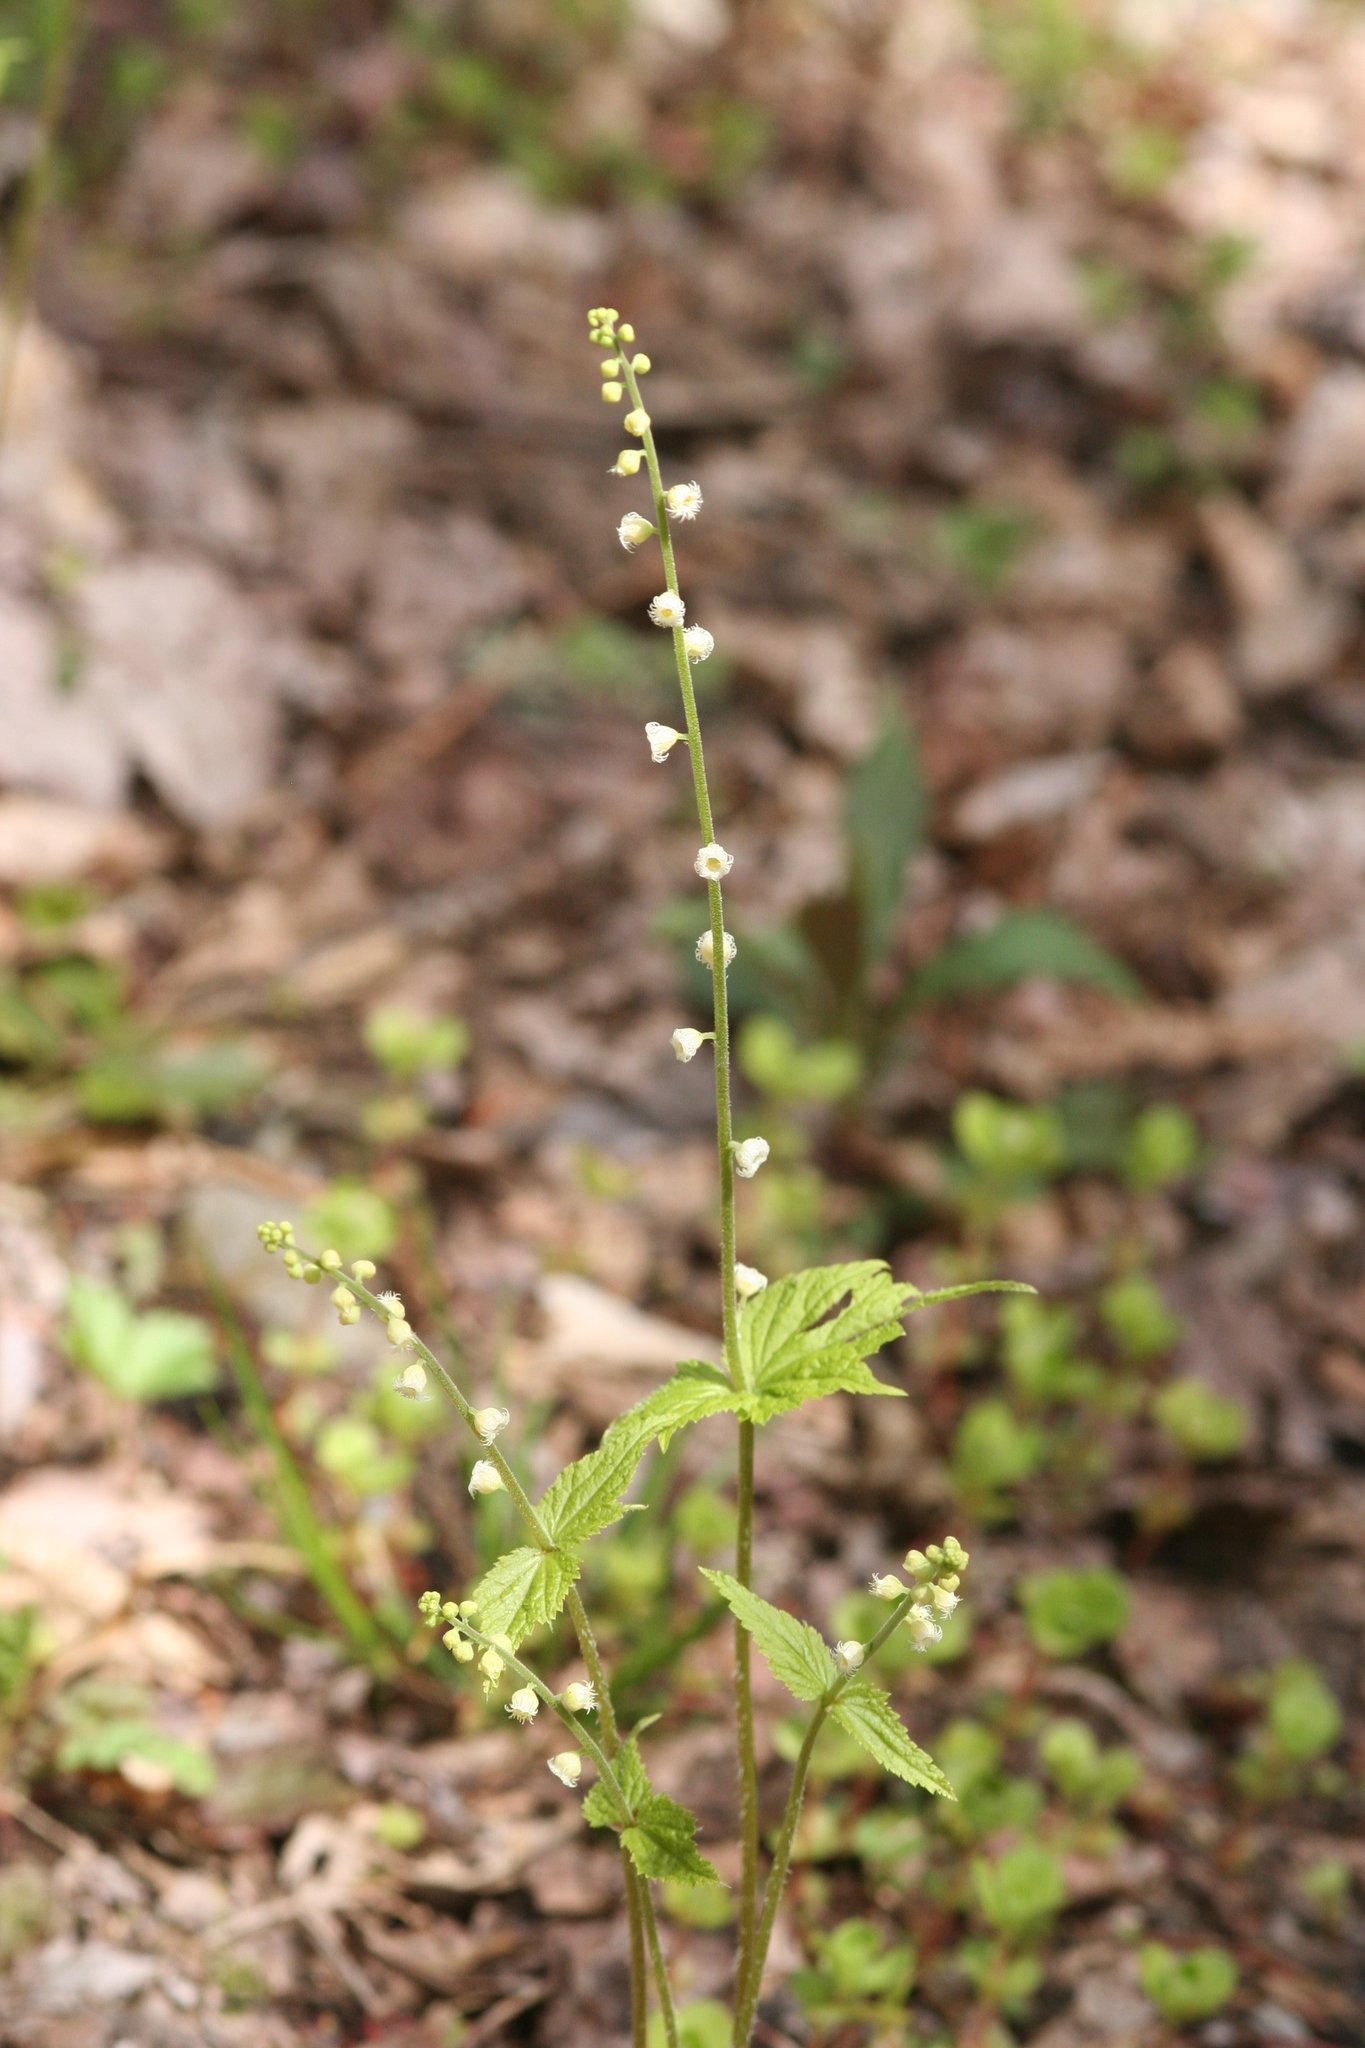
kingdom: Plantae
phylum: Tracheophyta
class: Magnoliopsida
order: Saxifragales
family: Saxifragaceae
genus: Mitella
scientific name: Mitella diphylla
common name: Coolwort
